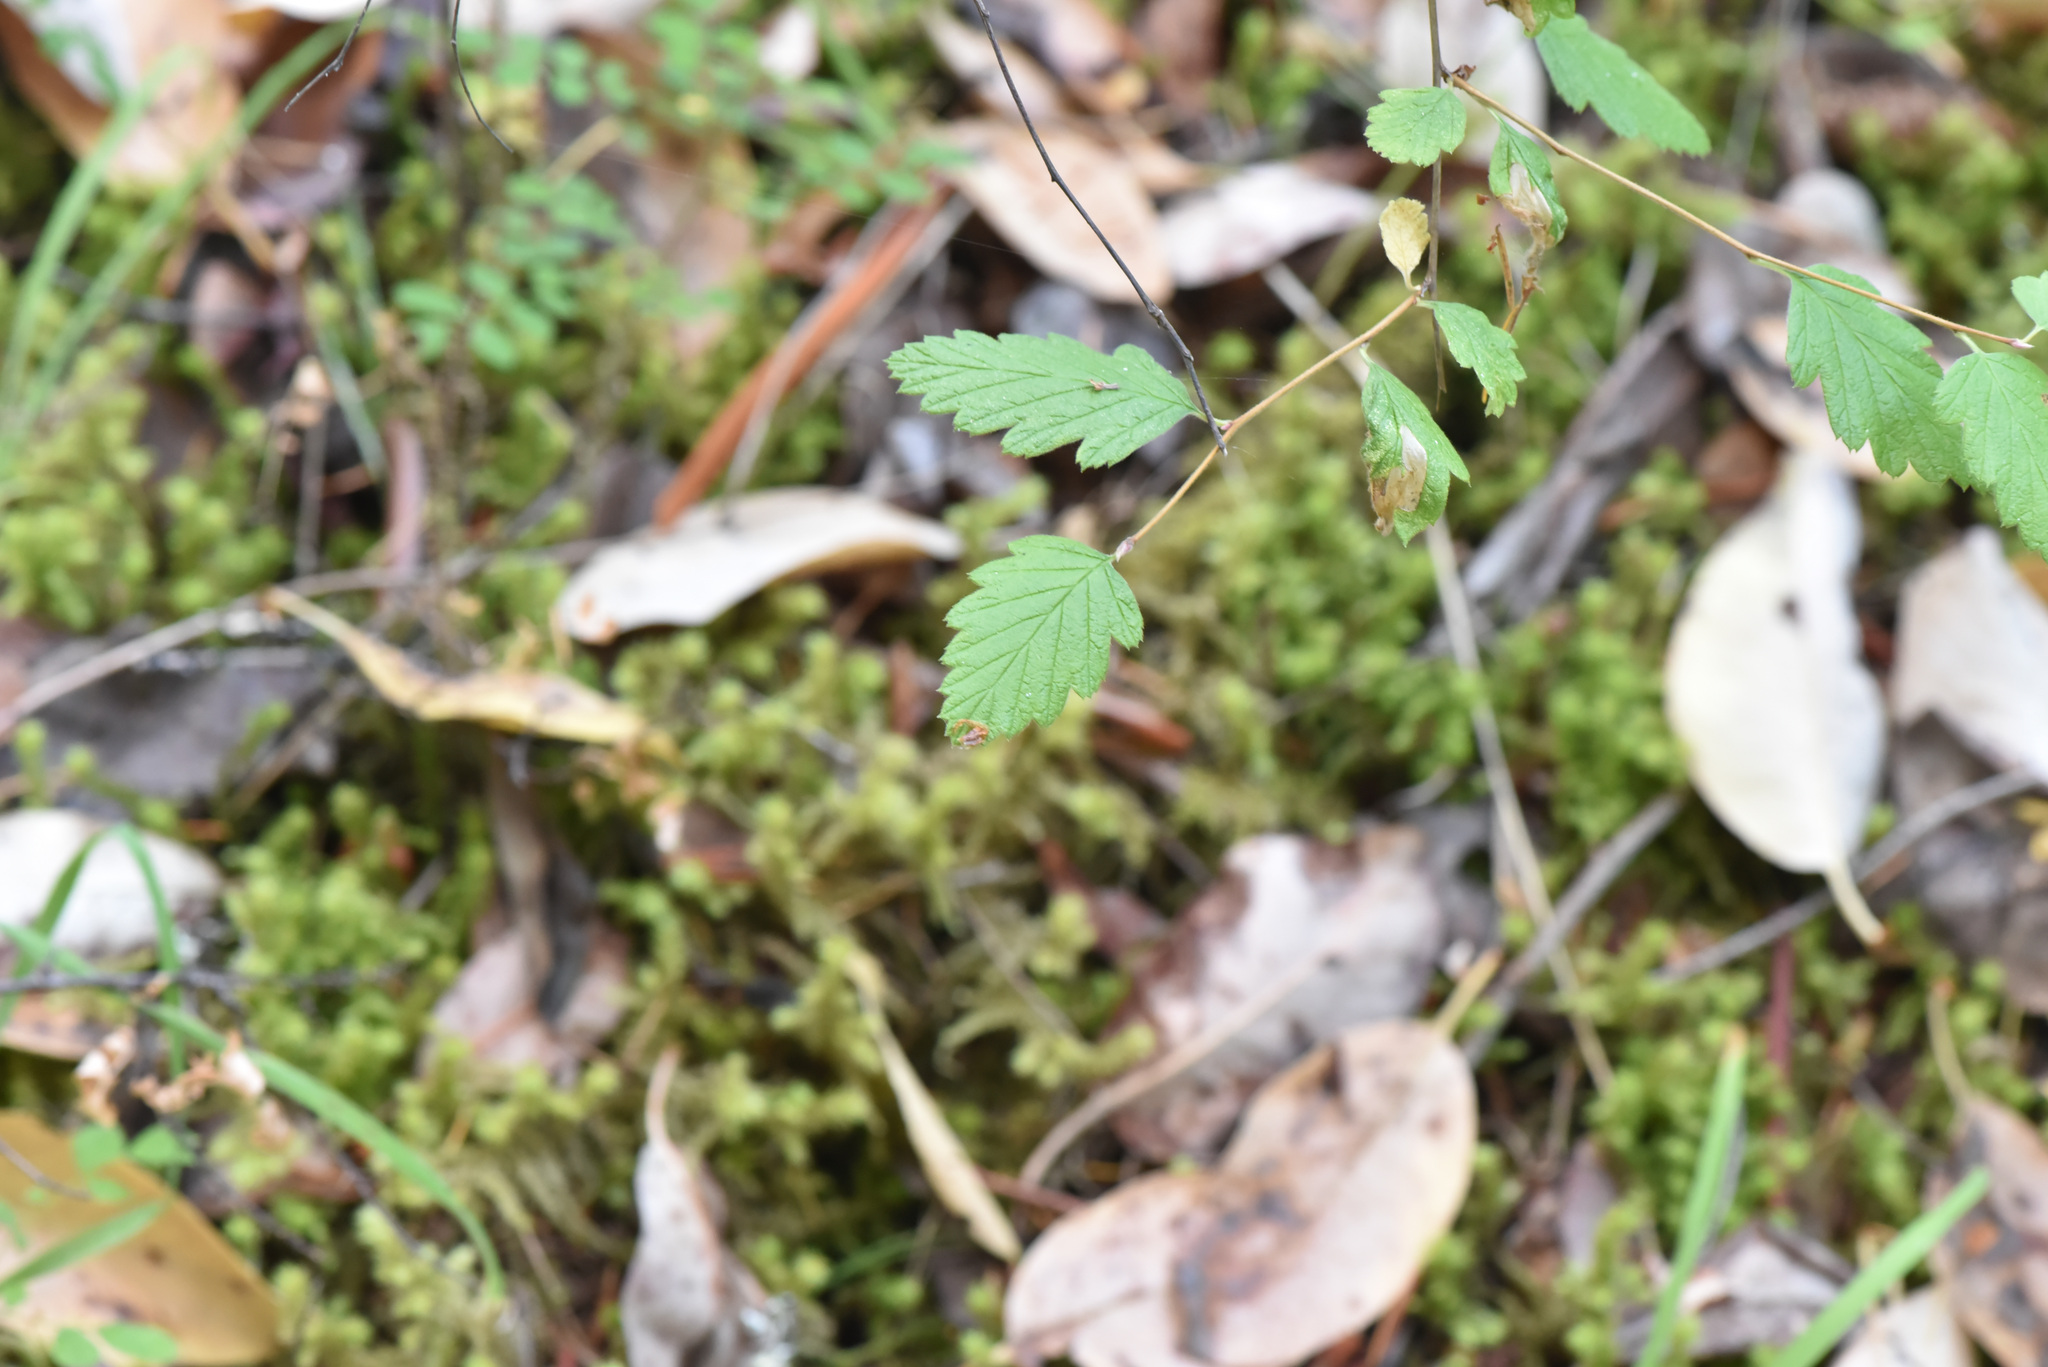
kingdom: Plantae
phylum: Tracheophyta
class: Magnoliopsida
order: Rosales
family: Rosaceae
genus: Holodiscus
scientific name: Holodiscus discolor
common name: Oceanspray
